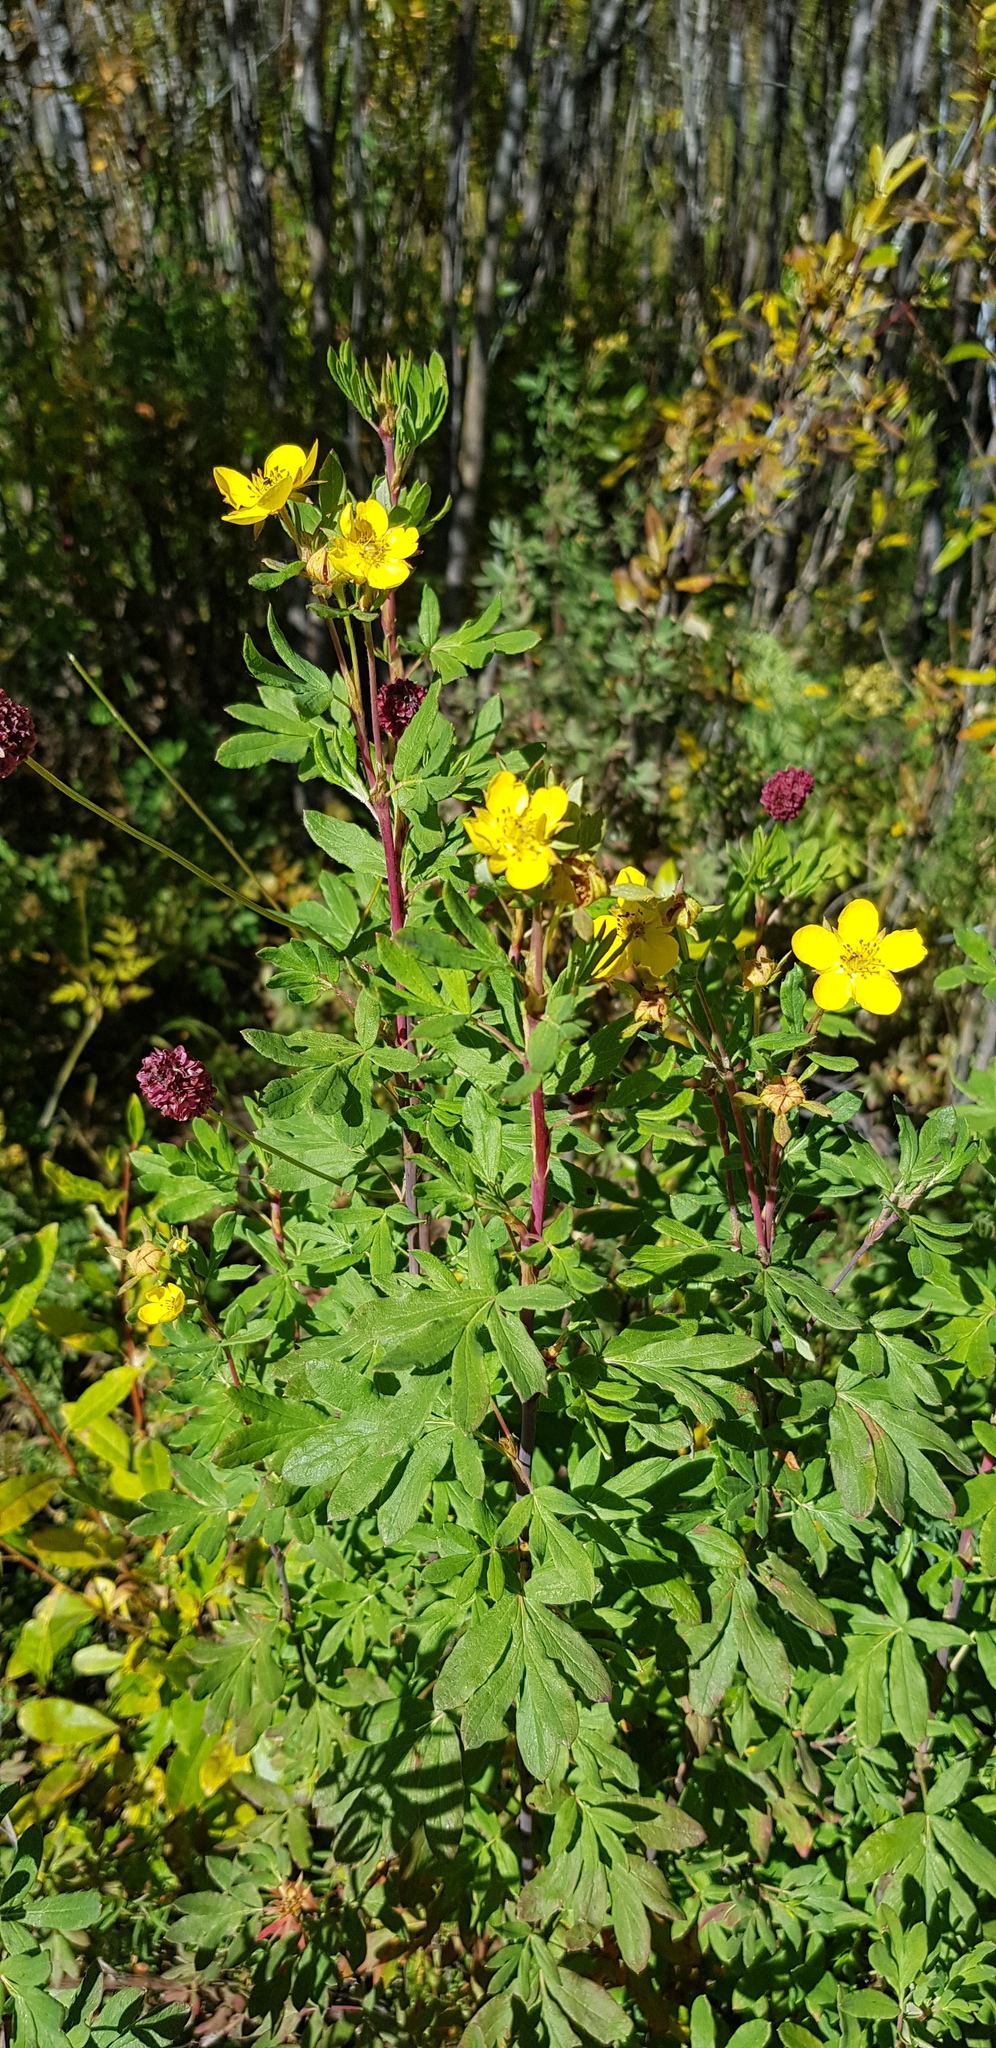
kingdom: Plantae
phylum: Tracheophyta
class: Magnoliopsida
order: Rosales
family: Rosaceae
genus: Dasiphora
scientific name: Dasiphora fruticosa
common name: Shrubby cinquefoil
